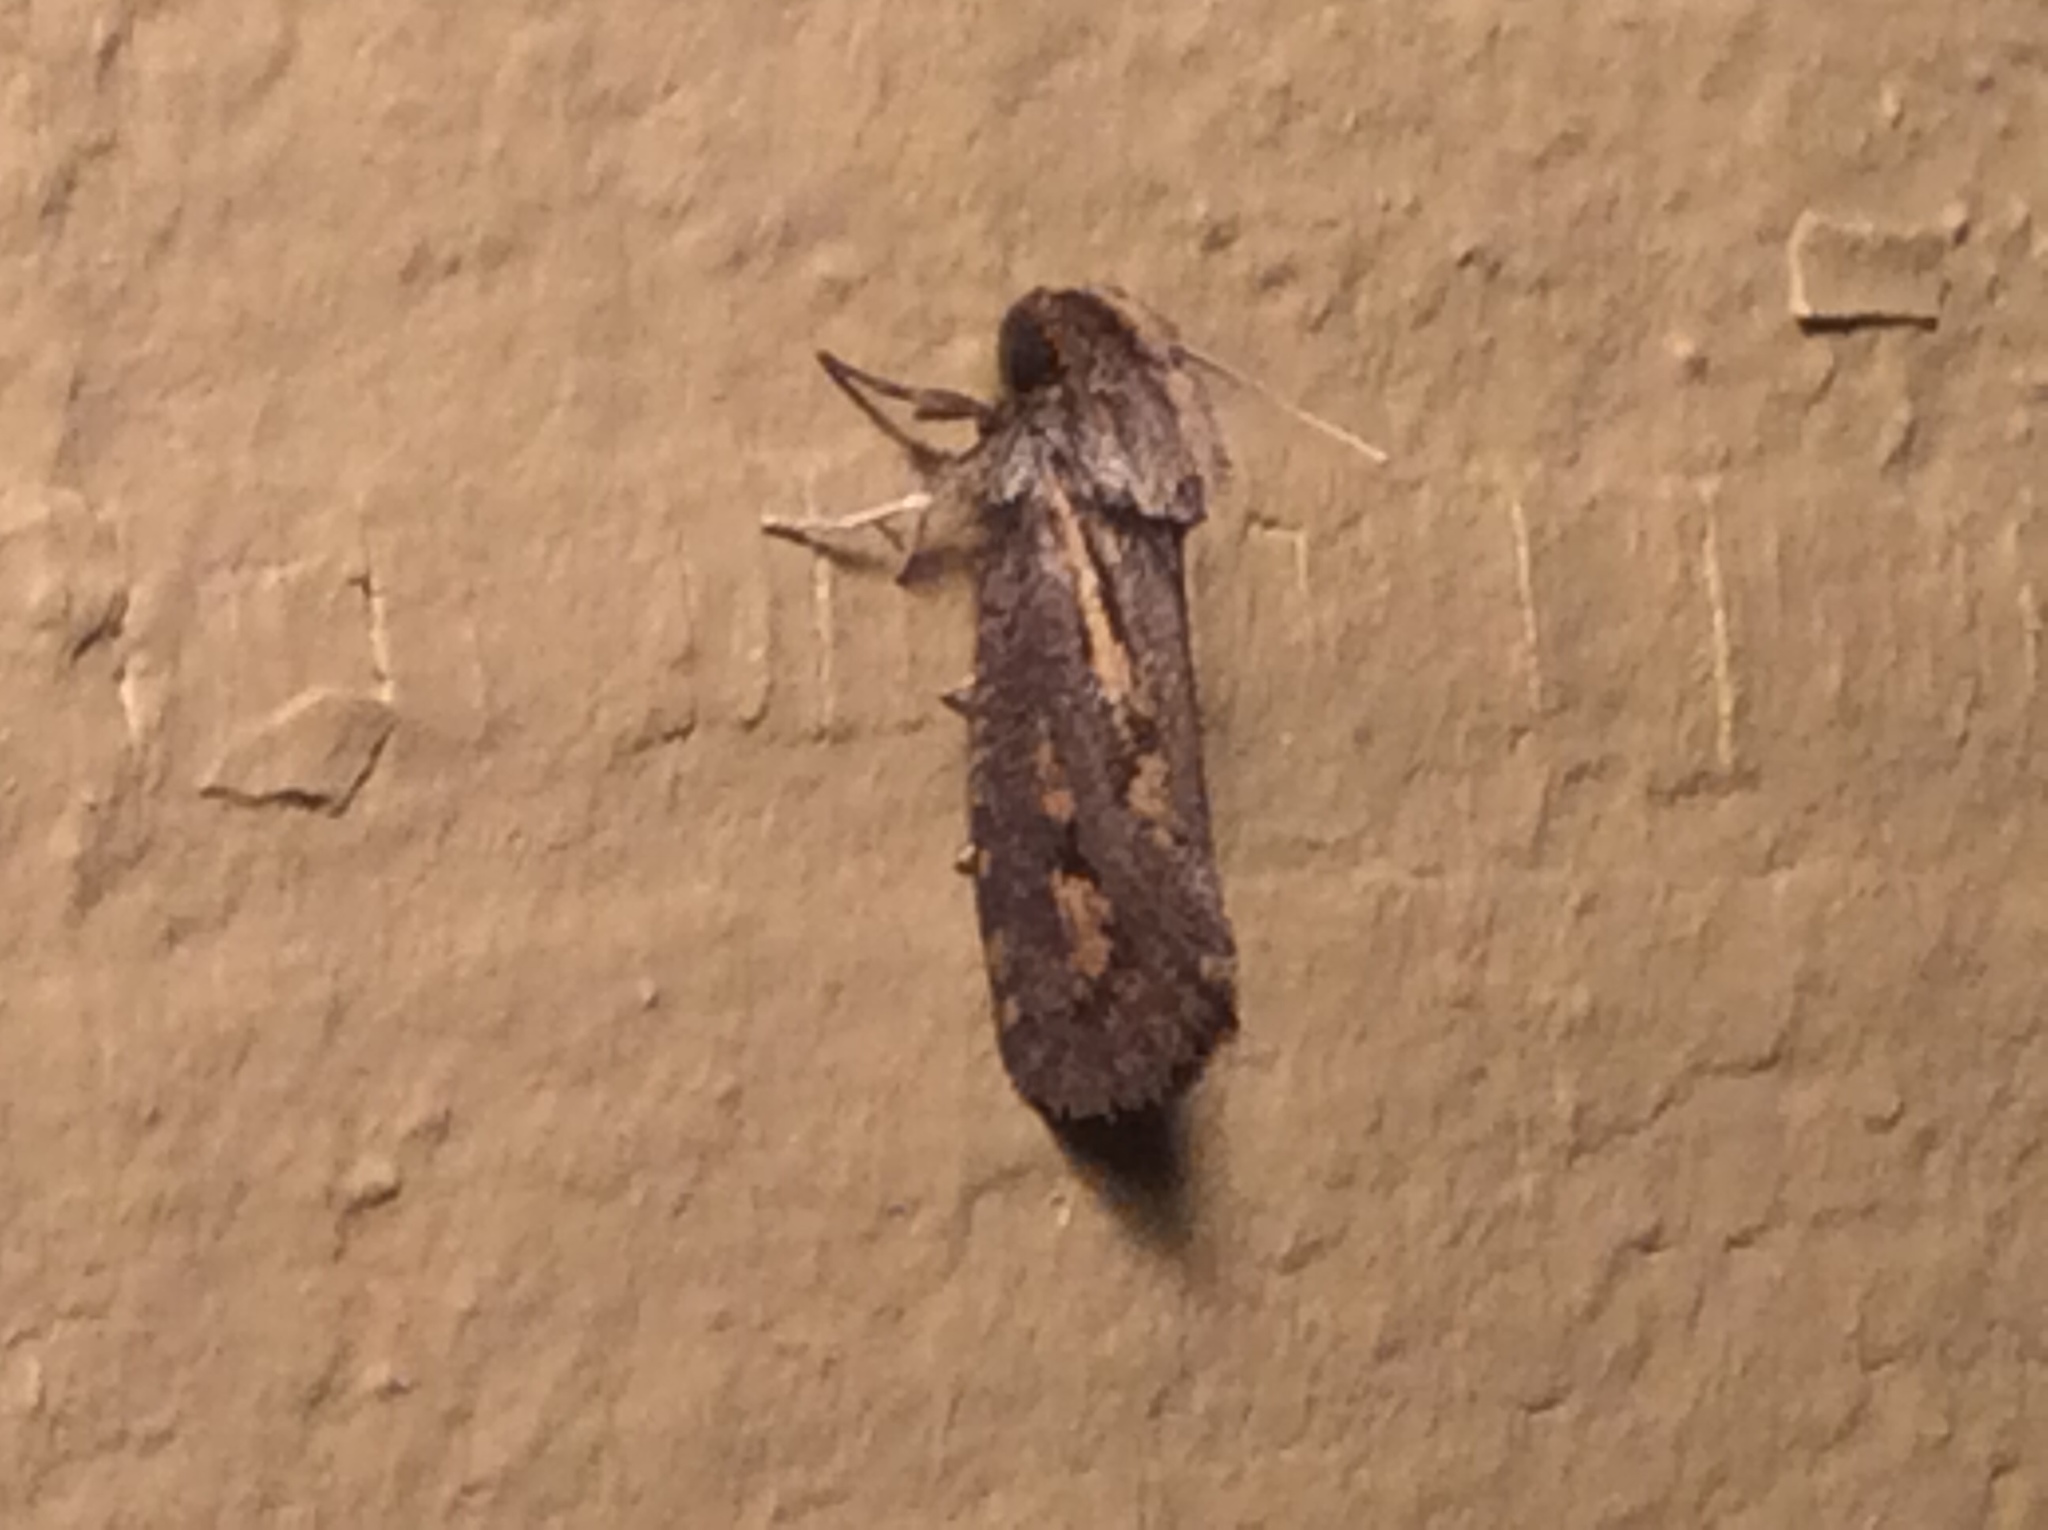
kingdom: Animalia
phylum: Arthropoda
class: Insecta
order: Lepidoptera
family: Tineidae
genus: Acrolophus
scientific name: Acrolophus popeanella
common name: Clemens' grass tubeworm moth
